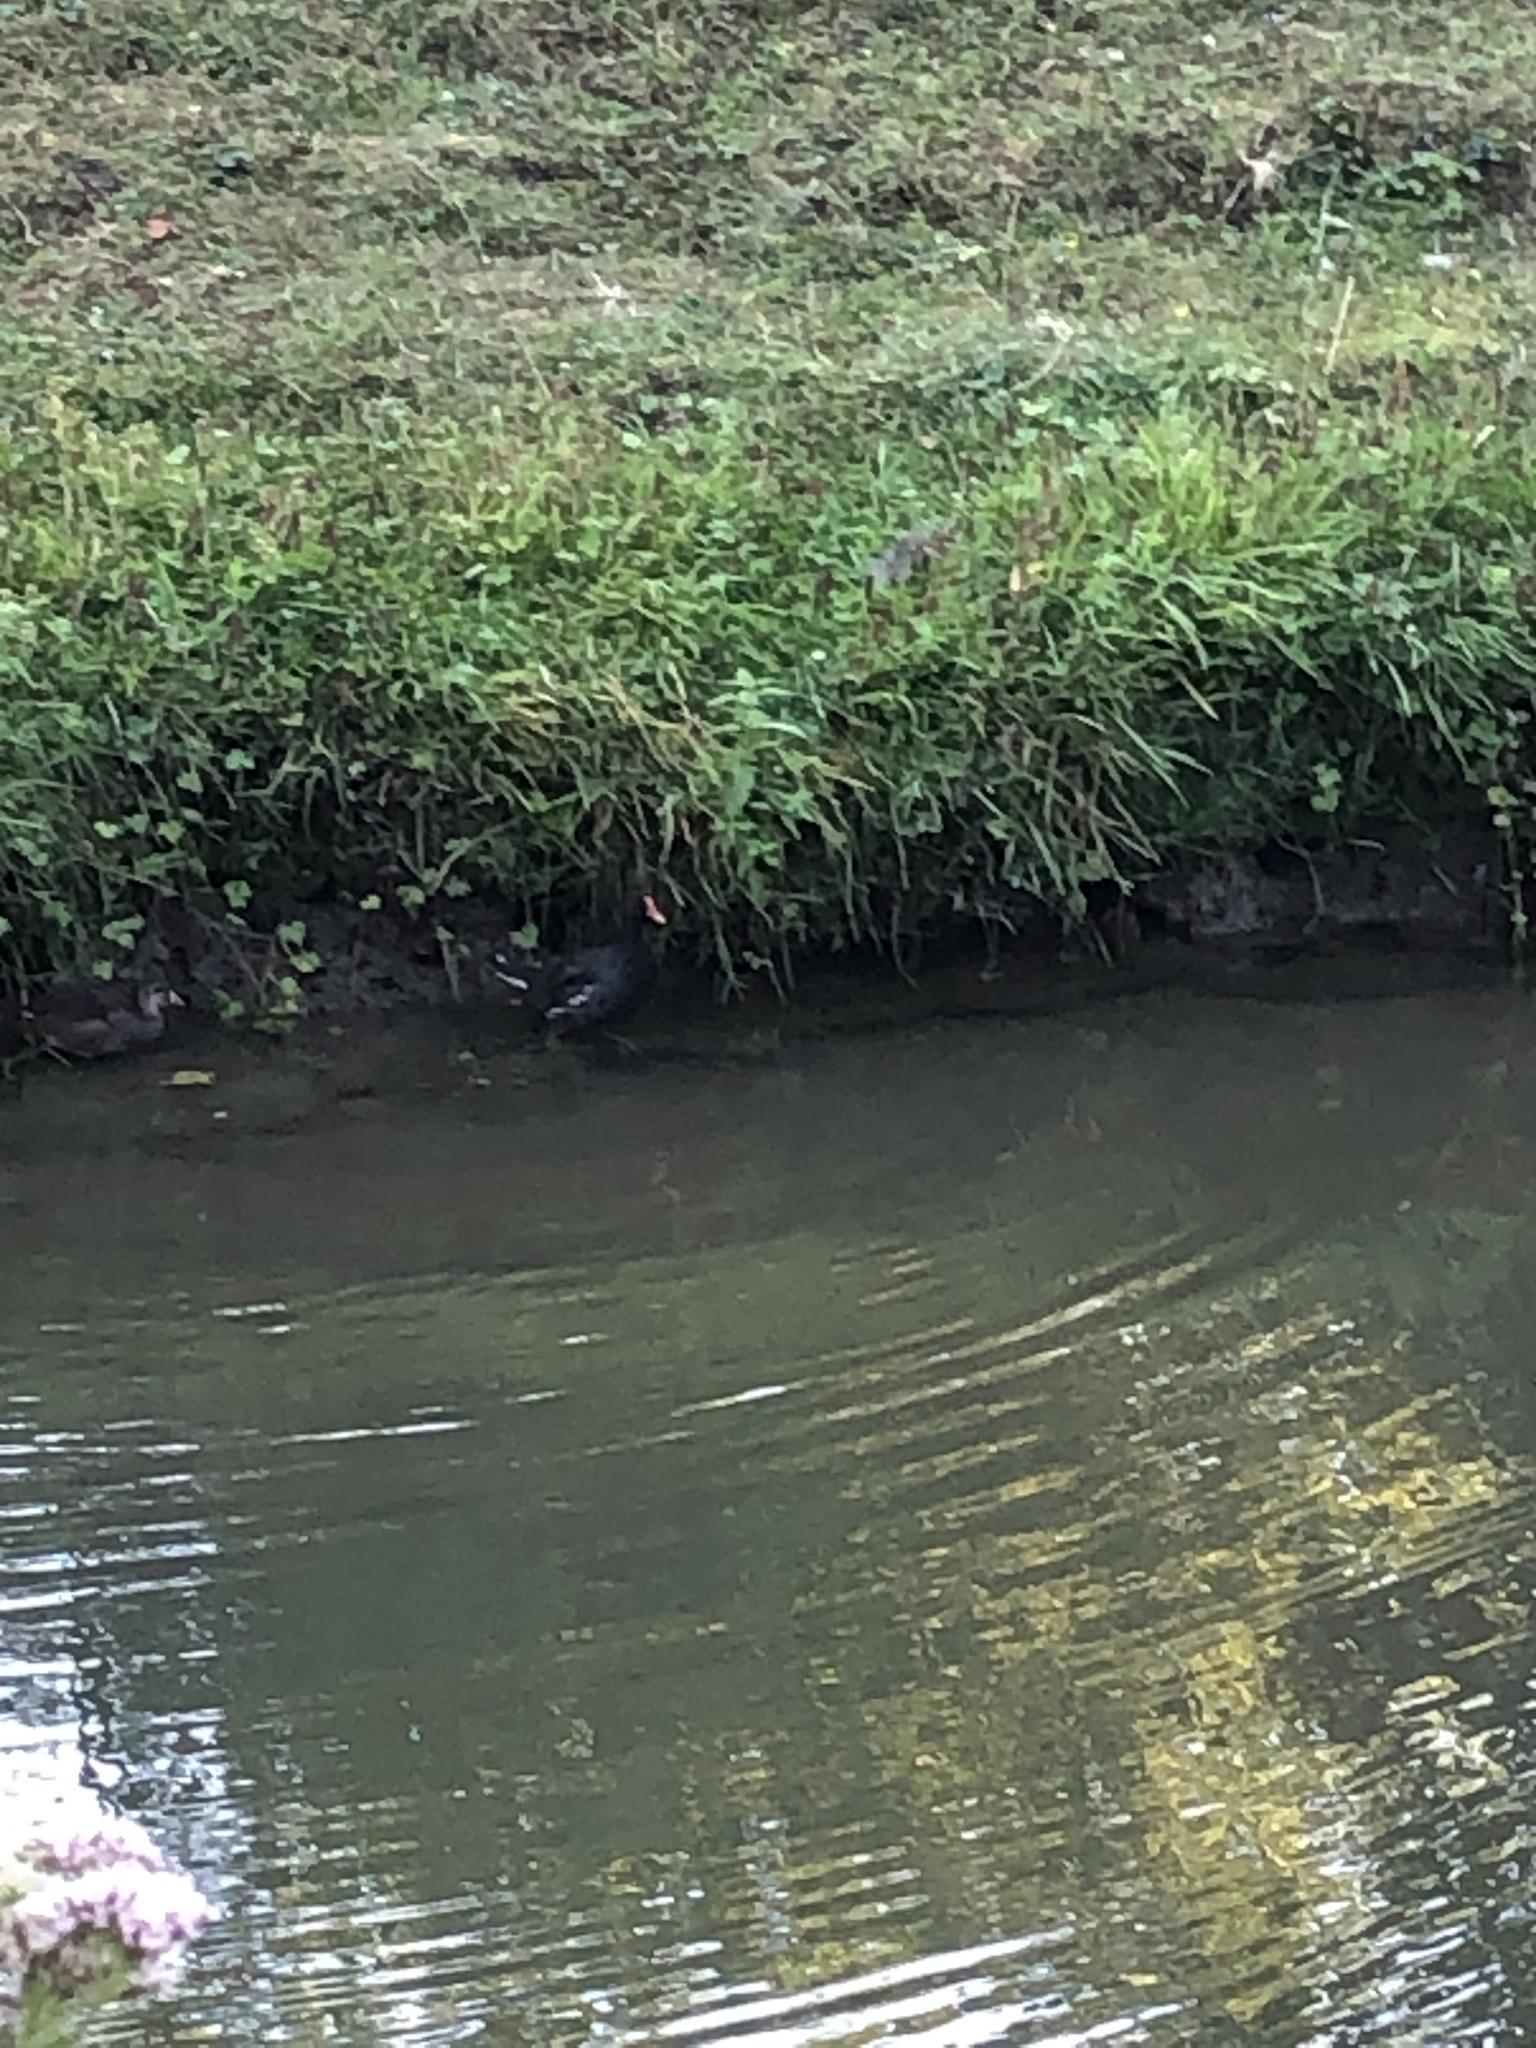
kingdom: Animalia
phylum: Chordata
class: Aves
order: Gruiformes
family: Rallidae
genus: Gallinula
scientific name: Gallinula chloropus
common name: Common moorhen
